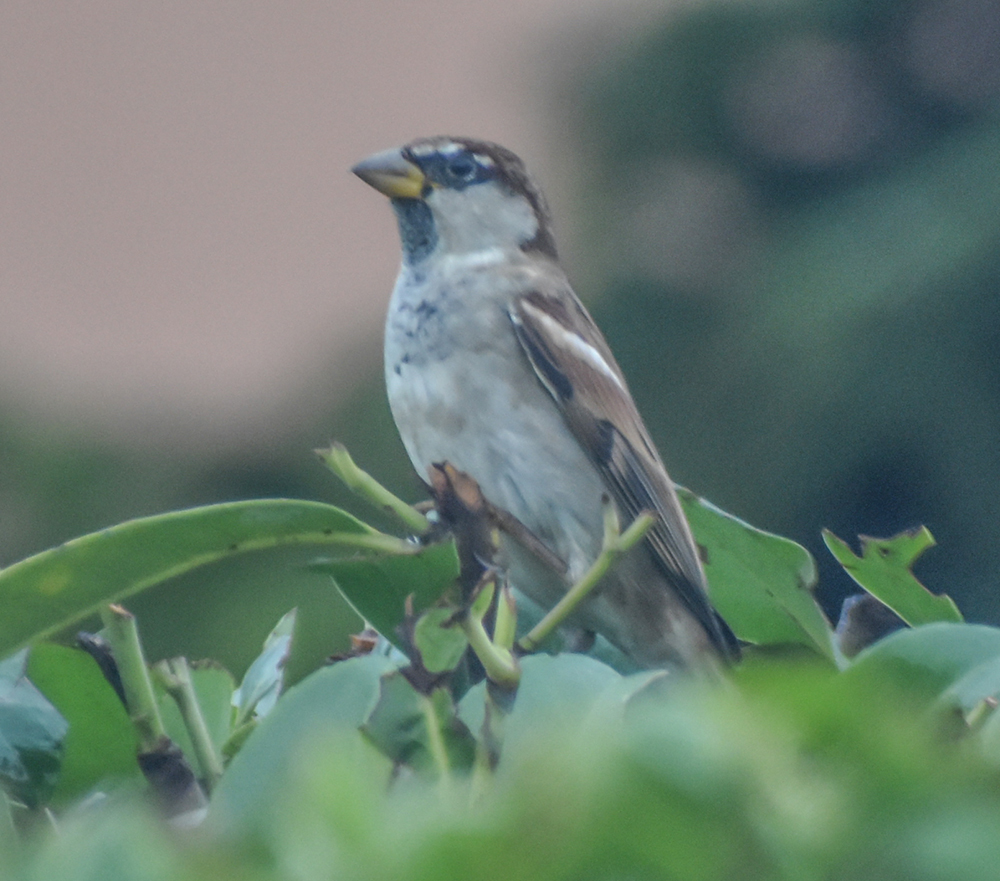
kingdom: Animalia
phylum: Chordata
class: Aves
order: Passeriformes
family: Passeridae
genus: Passer
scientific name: Passer italiae
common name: Italian sparrow
